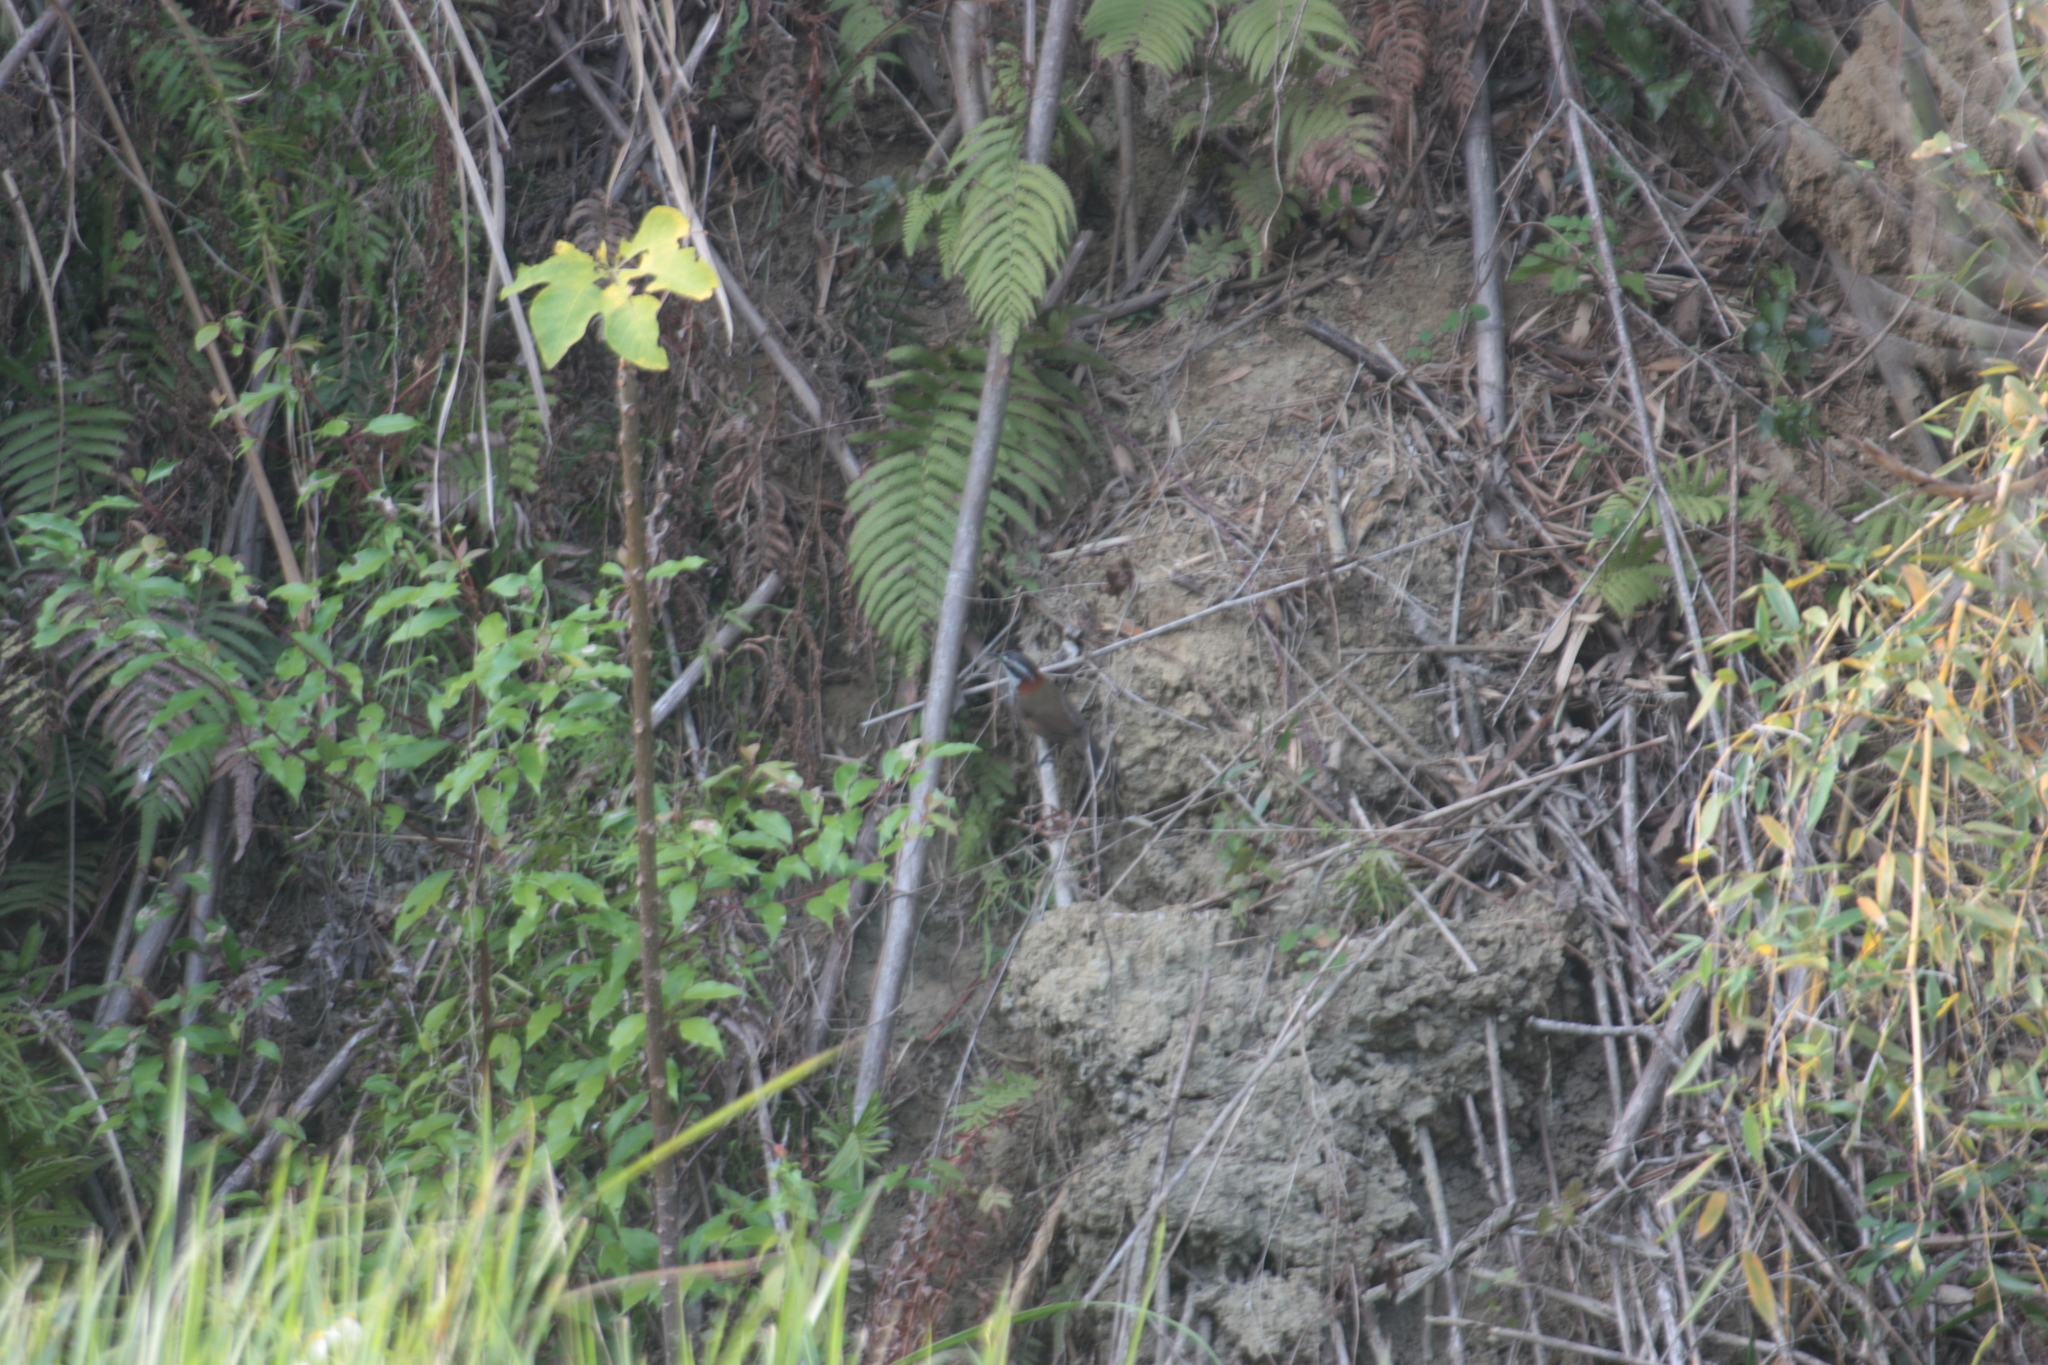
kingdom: Animalia
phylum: Chordata
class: Aves
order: Passeriformes
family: Timaliidae
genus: Pomatorhinus
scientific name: Pomatorhinus musicus
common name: Taiwan scimitar-babbler
